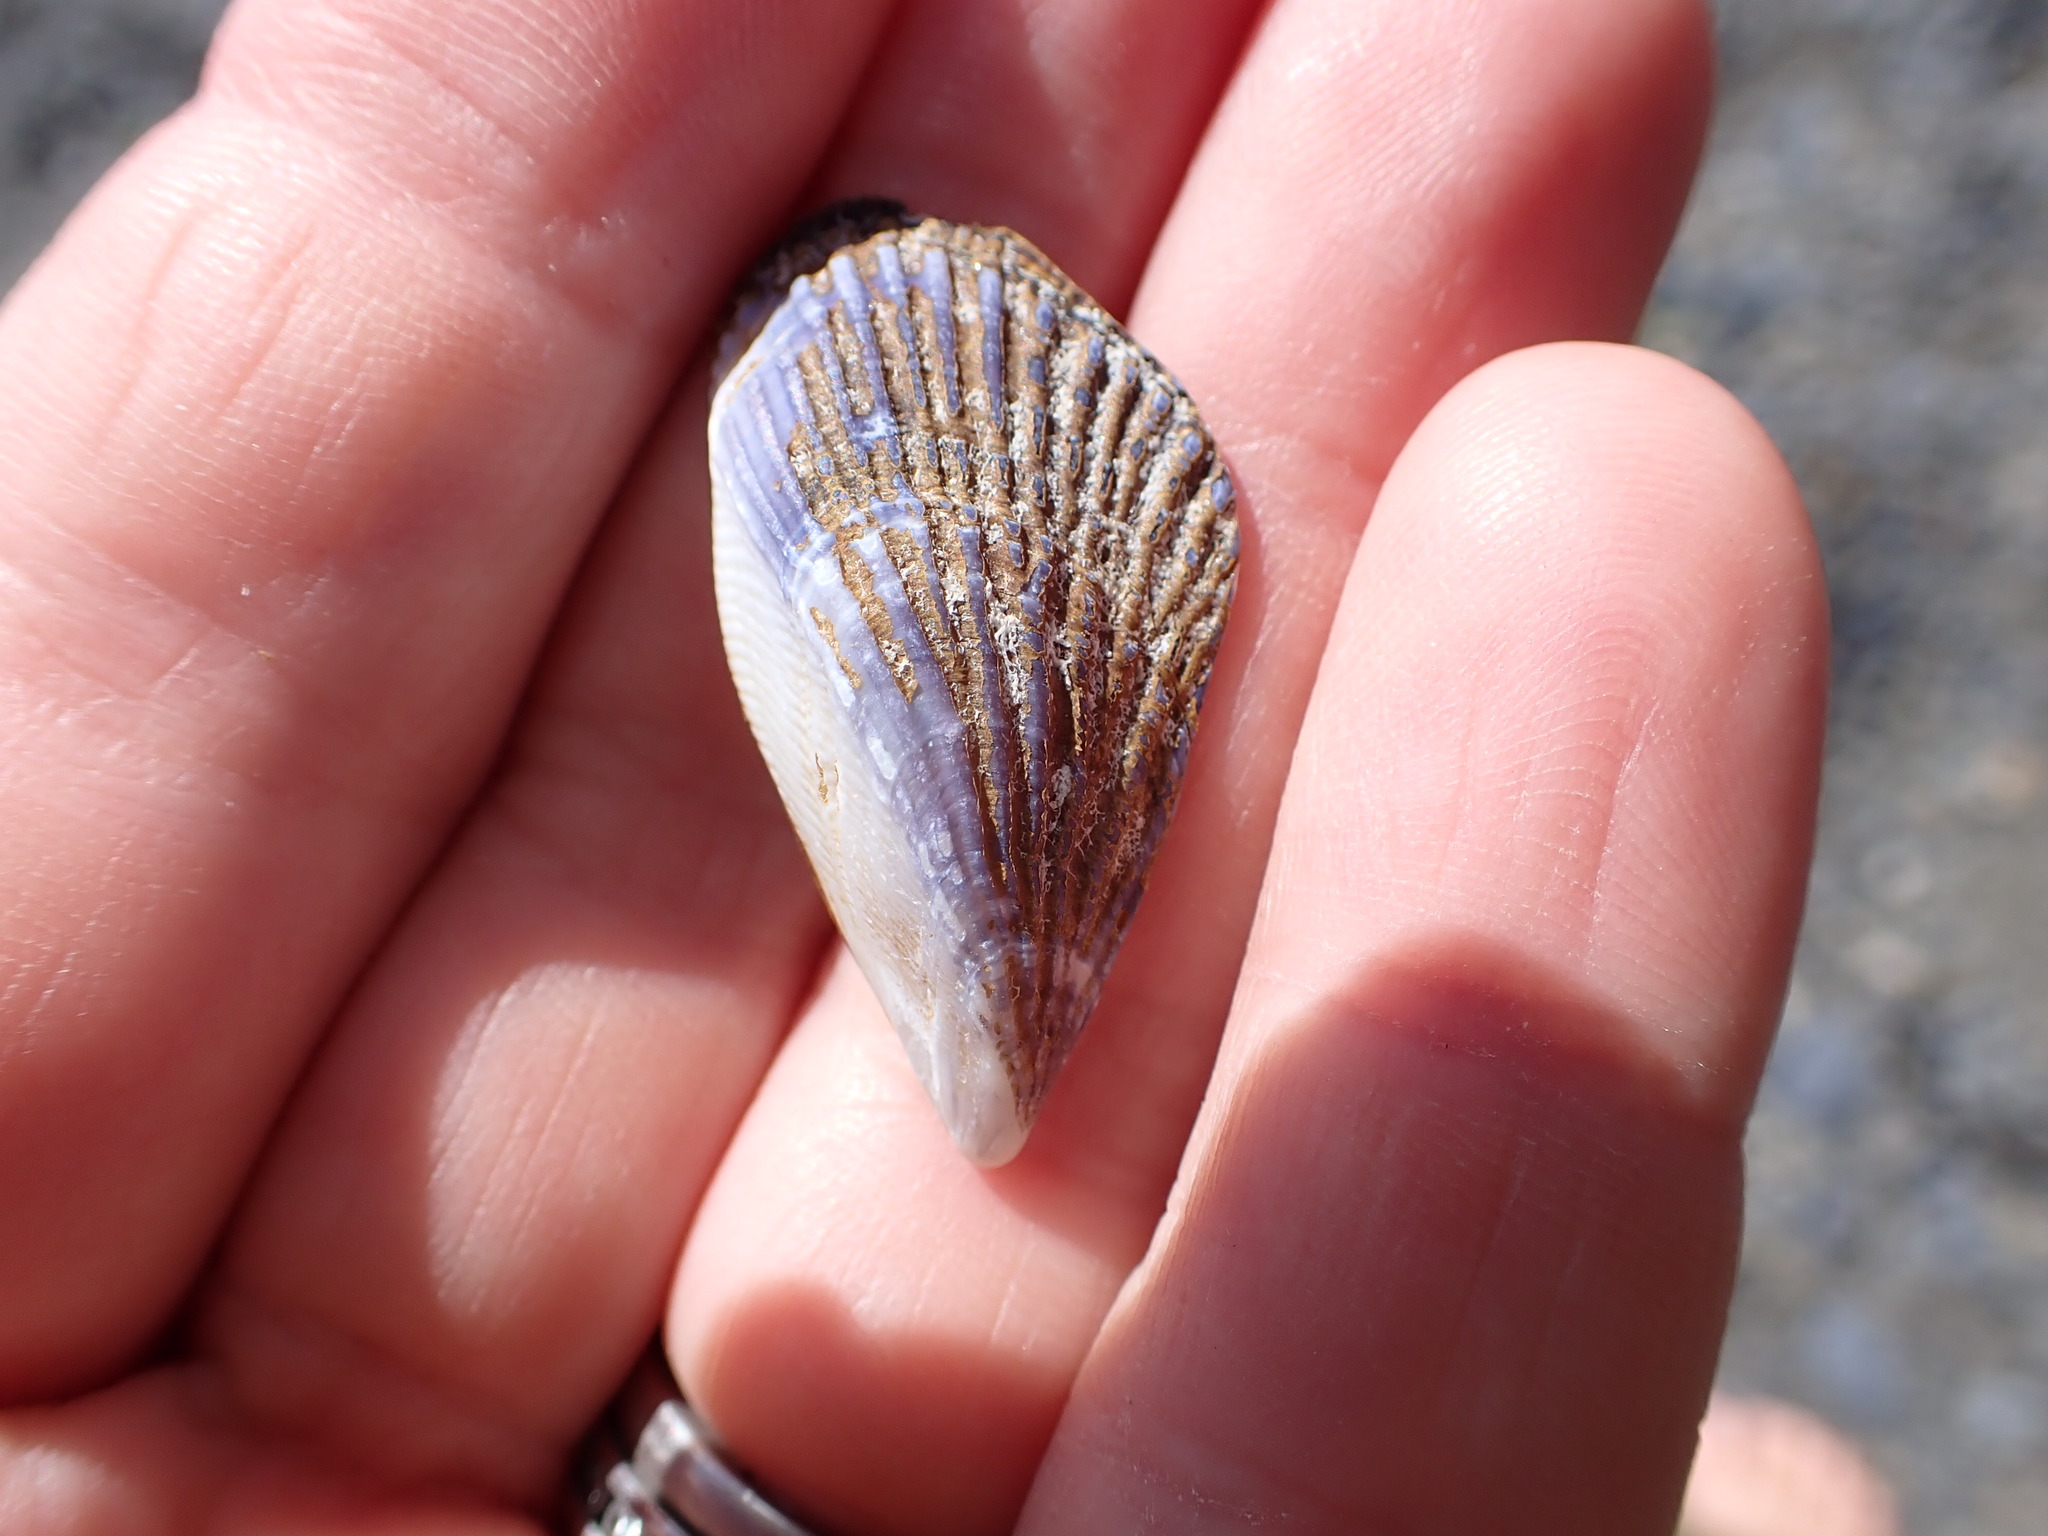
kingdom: Animalia
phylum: Mollusca
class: Bivalvia
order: Mytilida
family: Mytilidae
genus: Aulacomya
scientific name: Aulacomya maoriana
